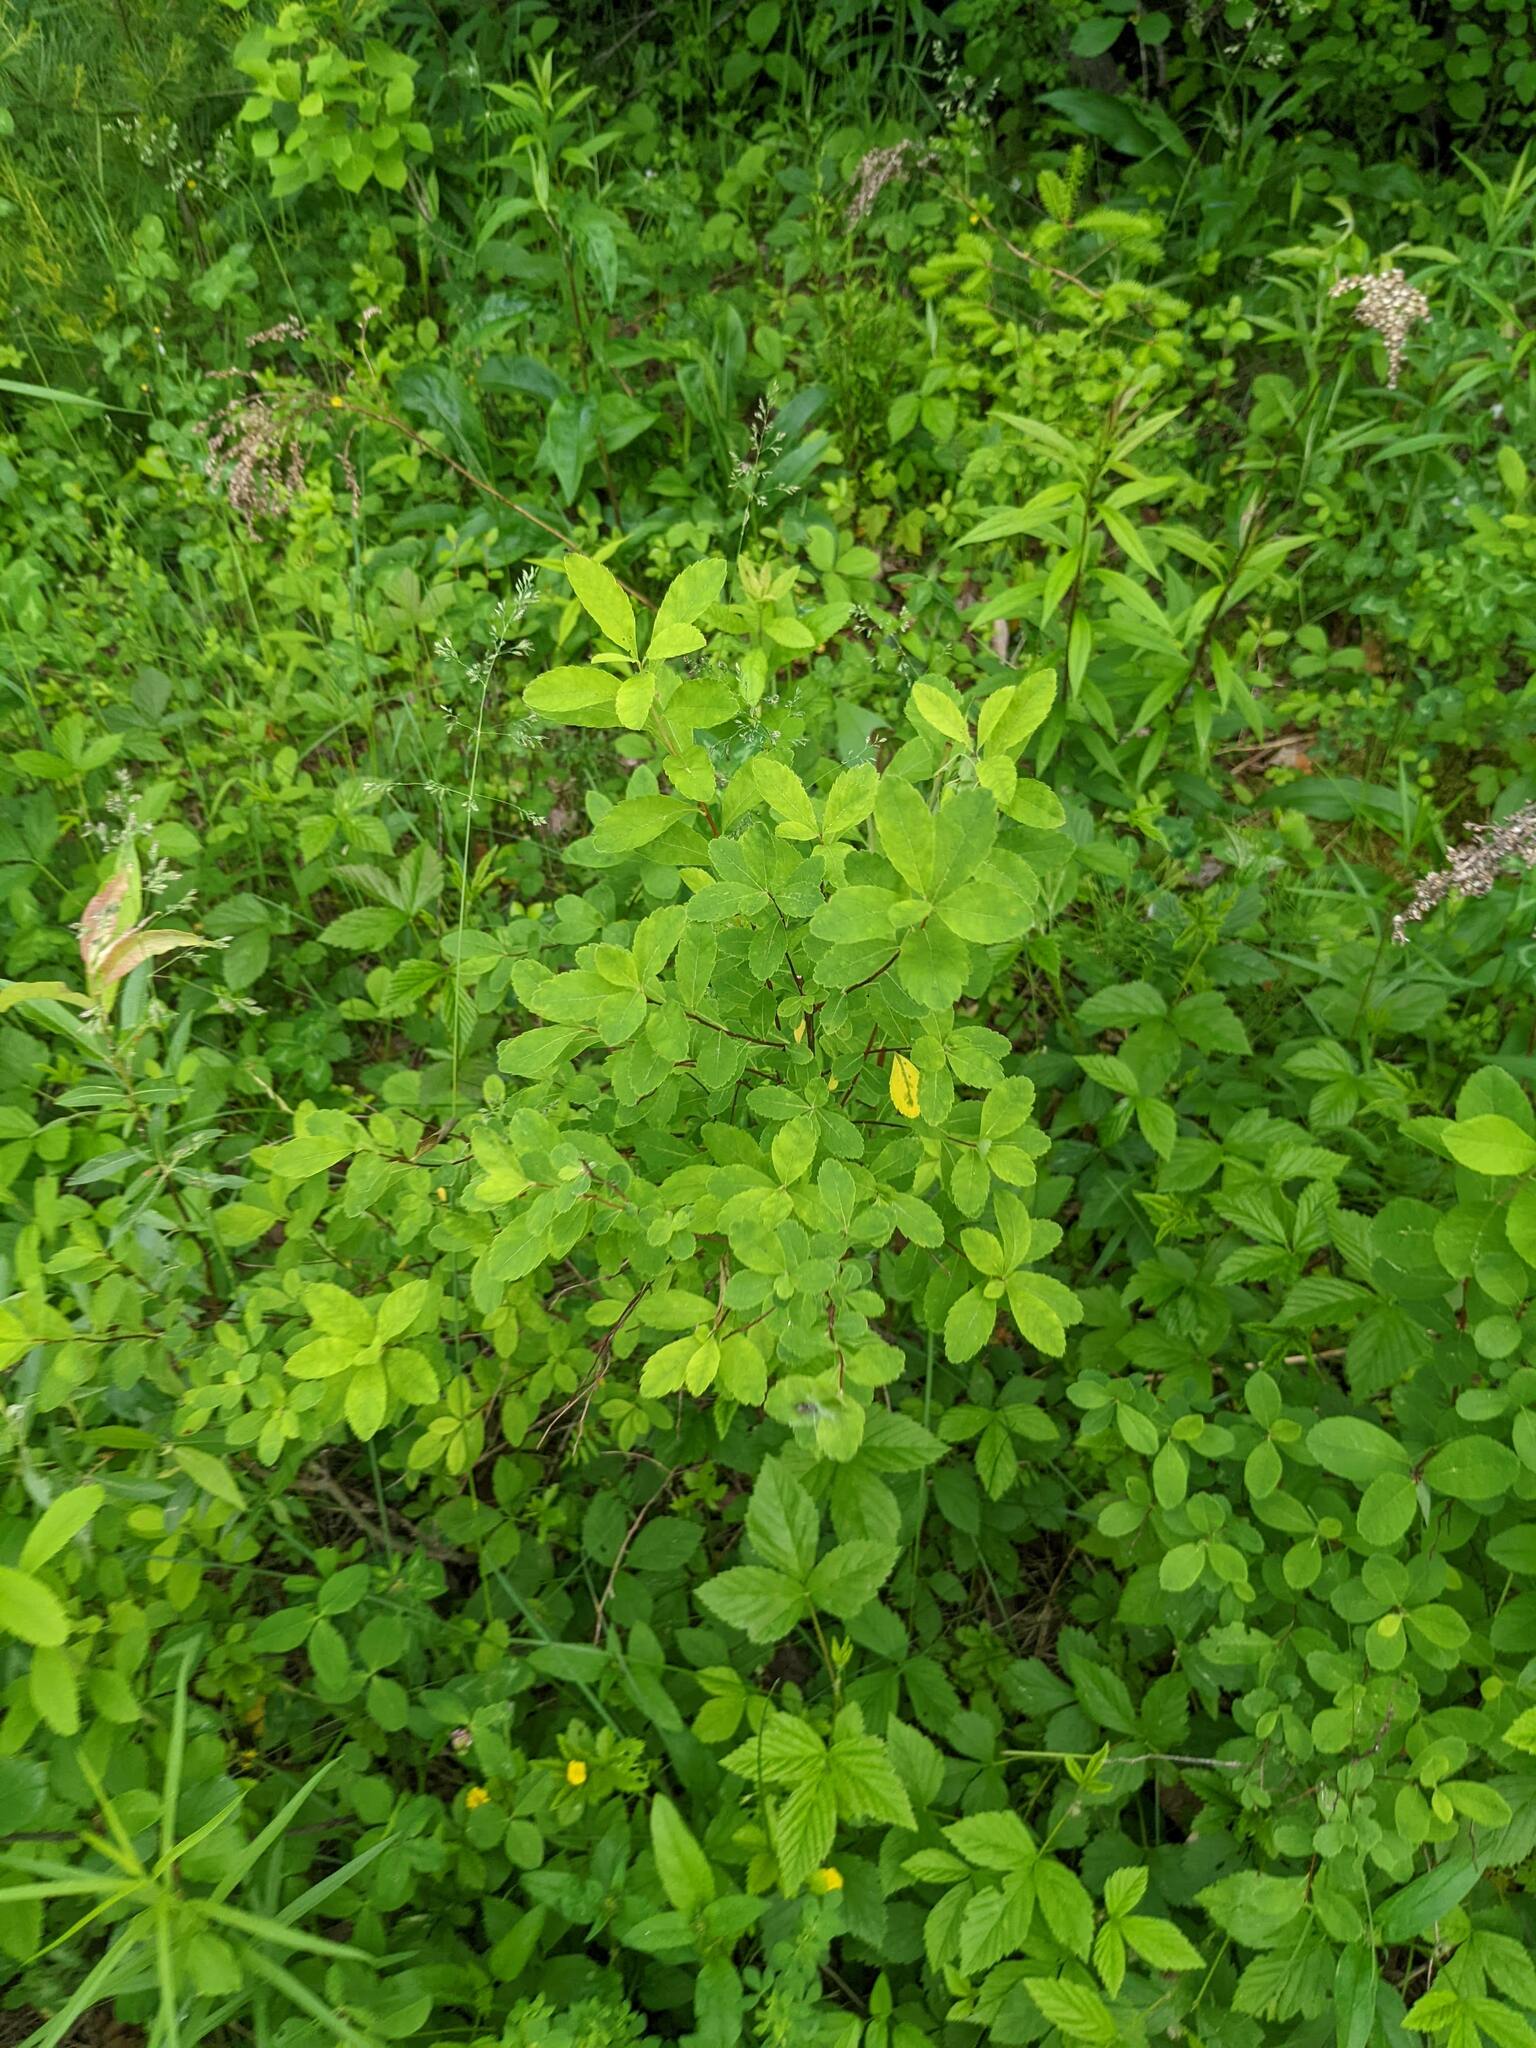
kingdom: Plantae
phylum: Tracheophyta
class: Magnoliopsida
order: Rosales
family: Rosaceae
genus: Spiraea
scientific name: Spiraea alba
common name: Pale bridewort
